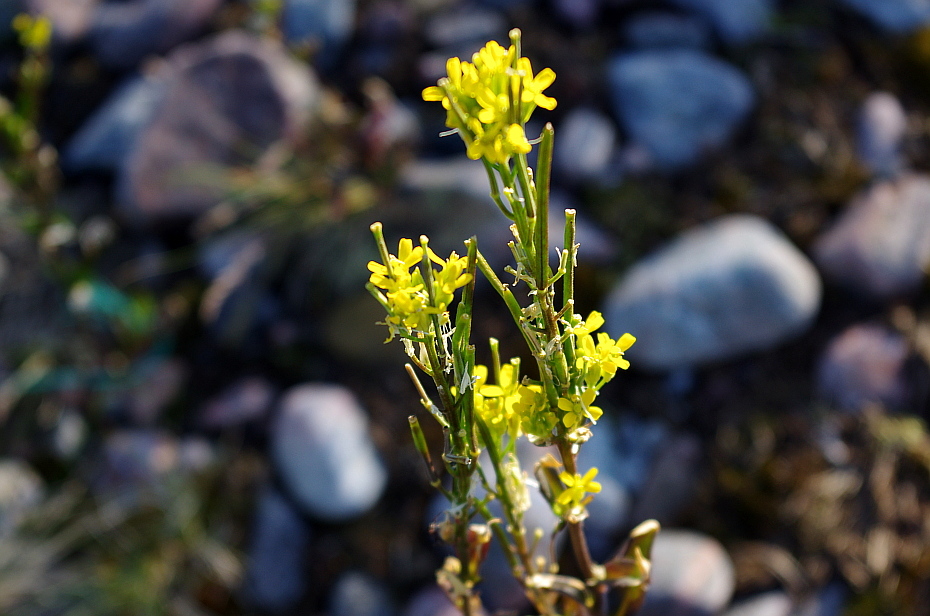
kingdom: Plantae
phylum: Tracheophyta
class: Magnoliopsida
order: Brassicales
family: Brassicaceae
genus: Erysimum
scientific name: Erysimum hieraciifolium
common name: European wallflower
